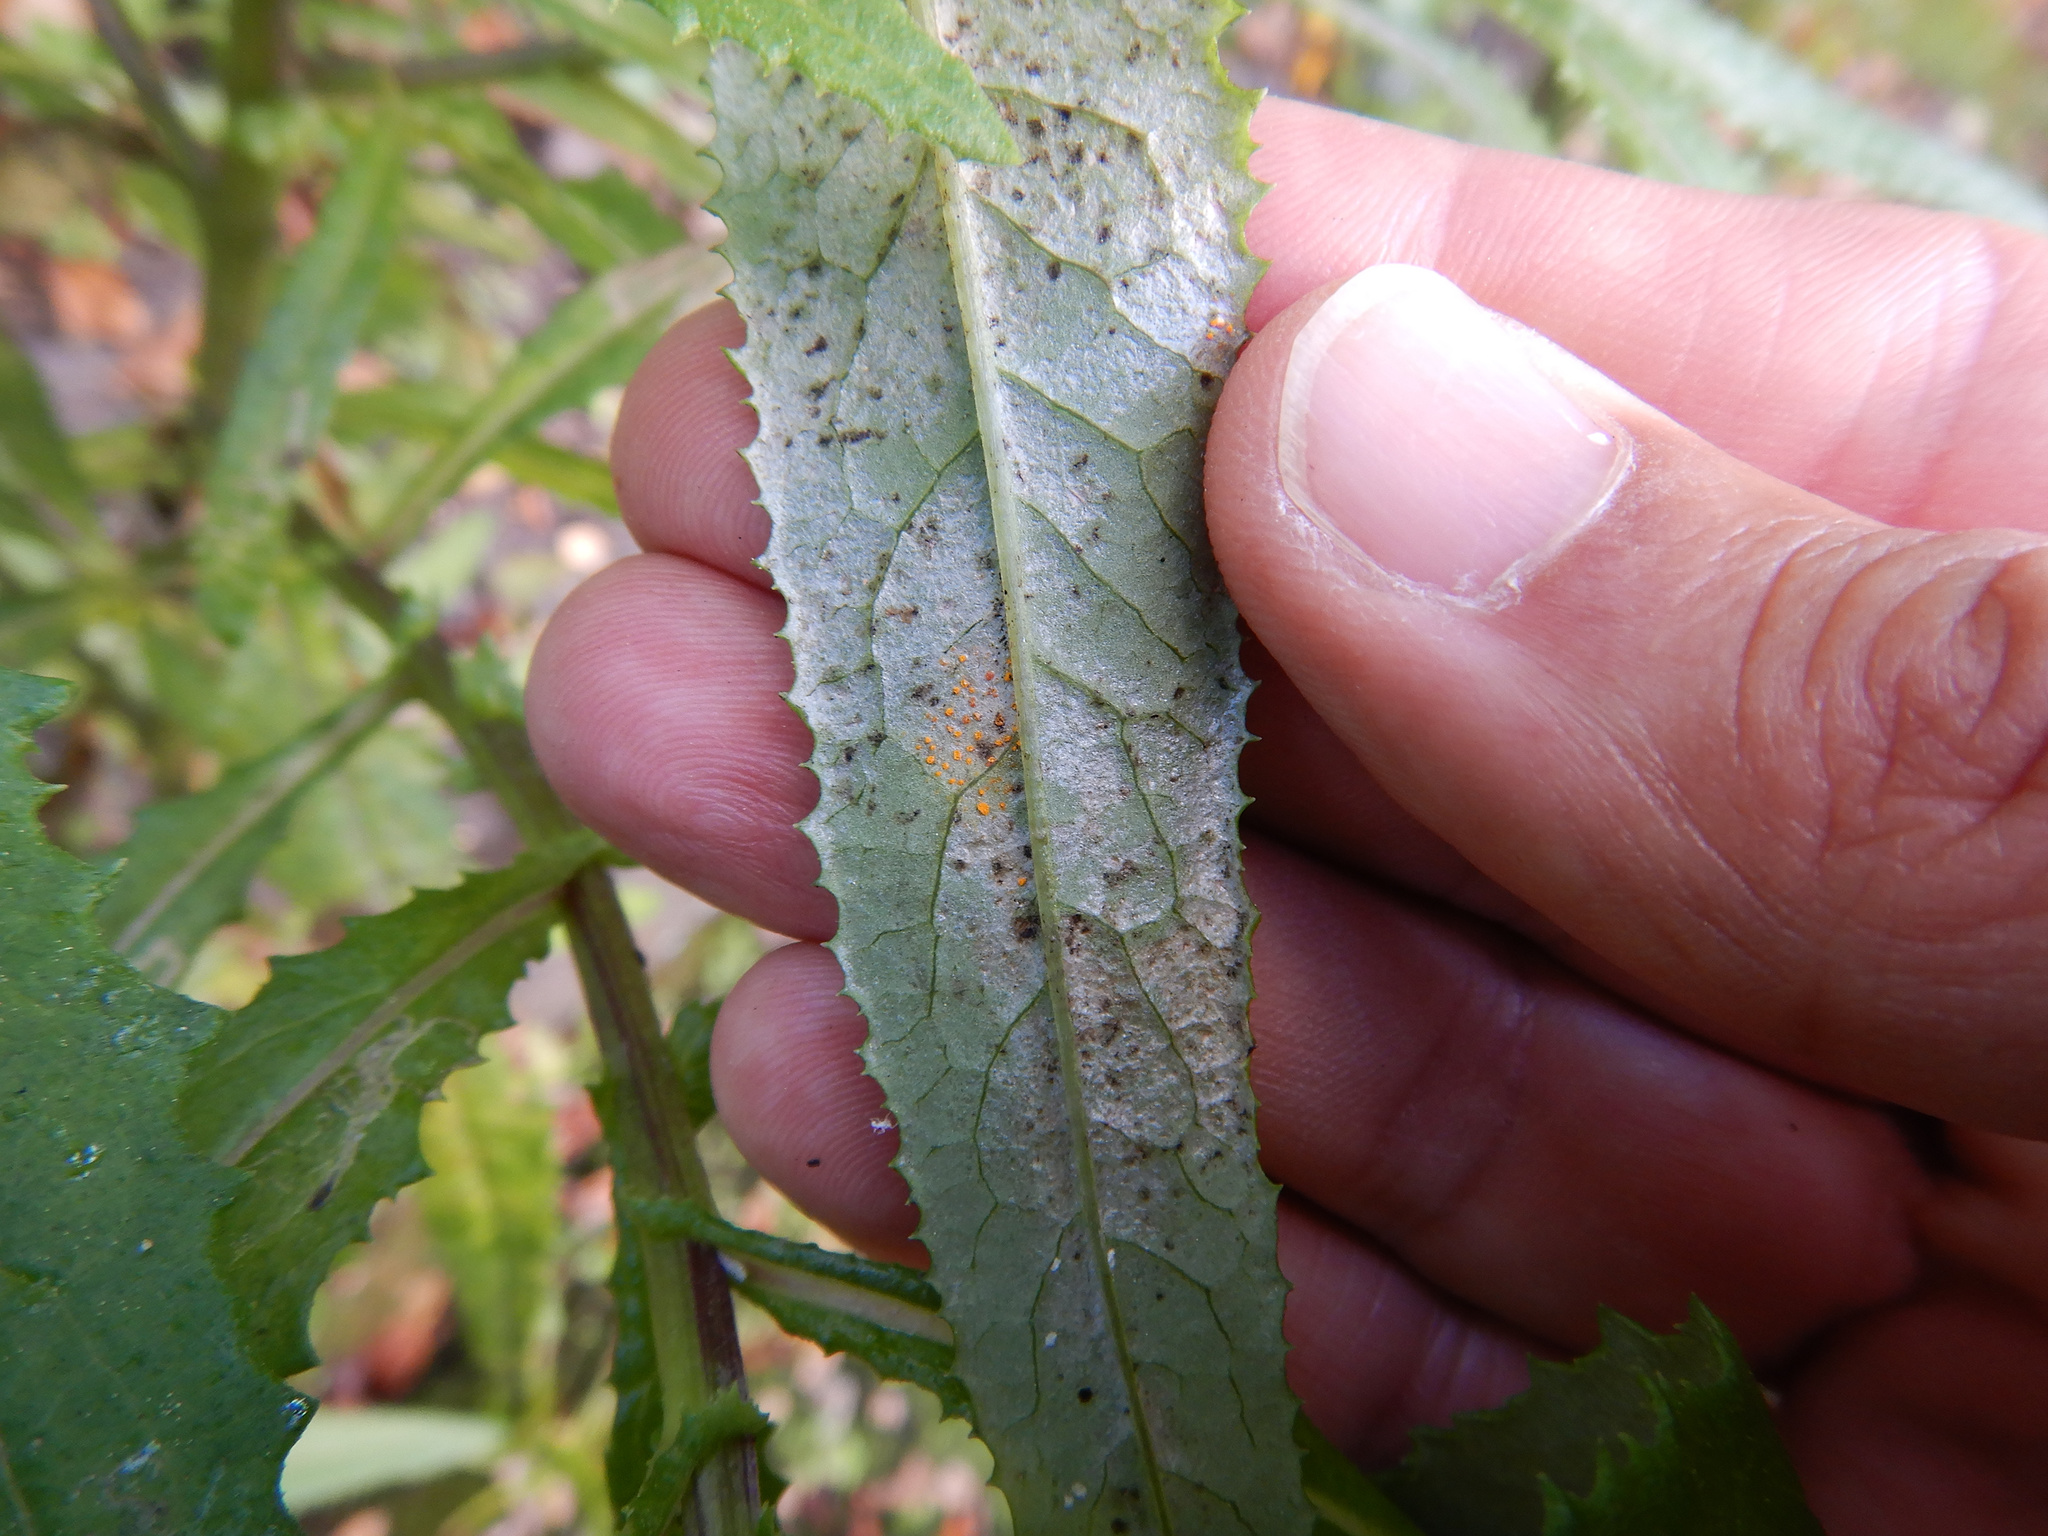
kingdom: Fungi
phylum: Basidiomycota
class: Pucciniomycetes
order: Pucciniales
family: Coleosporiaceae
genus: Coleosporium
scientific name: Coleosporium tussilaginis
